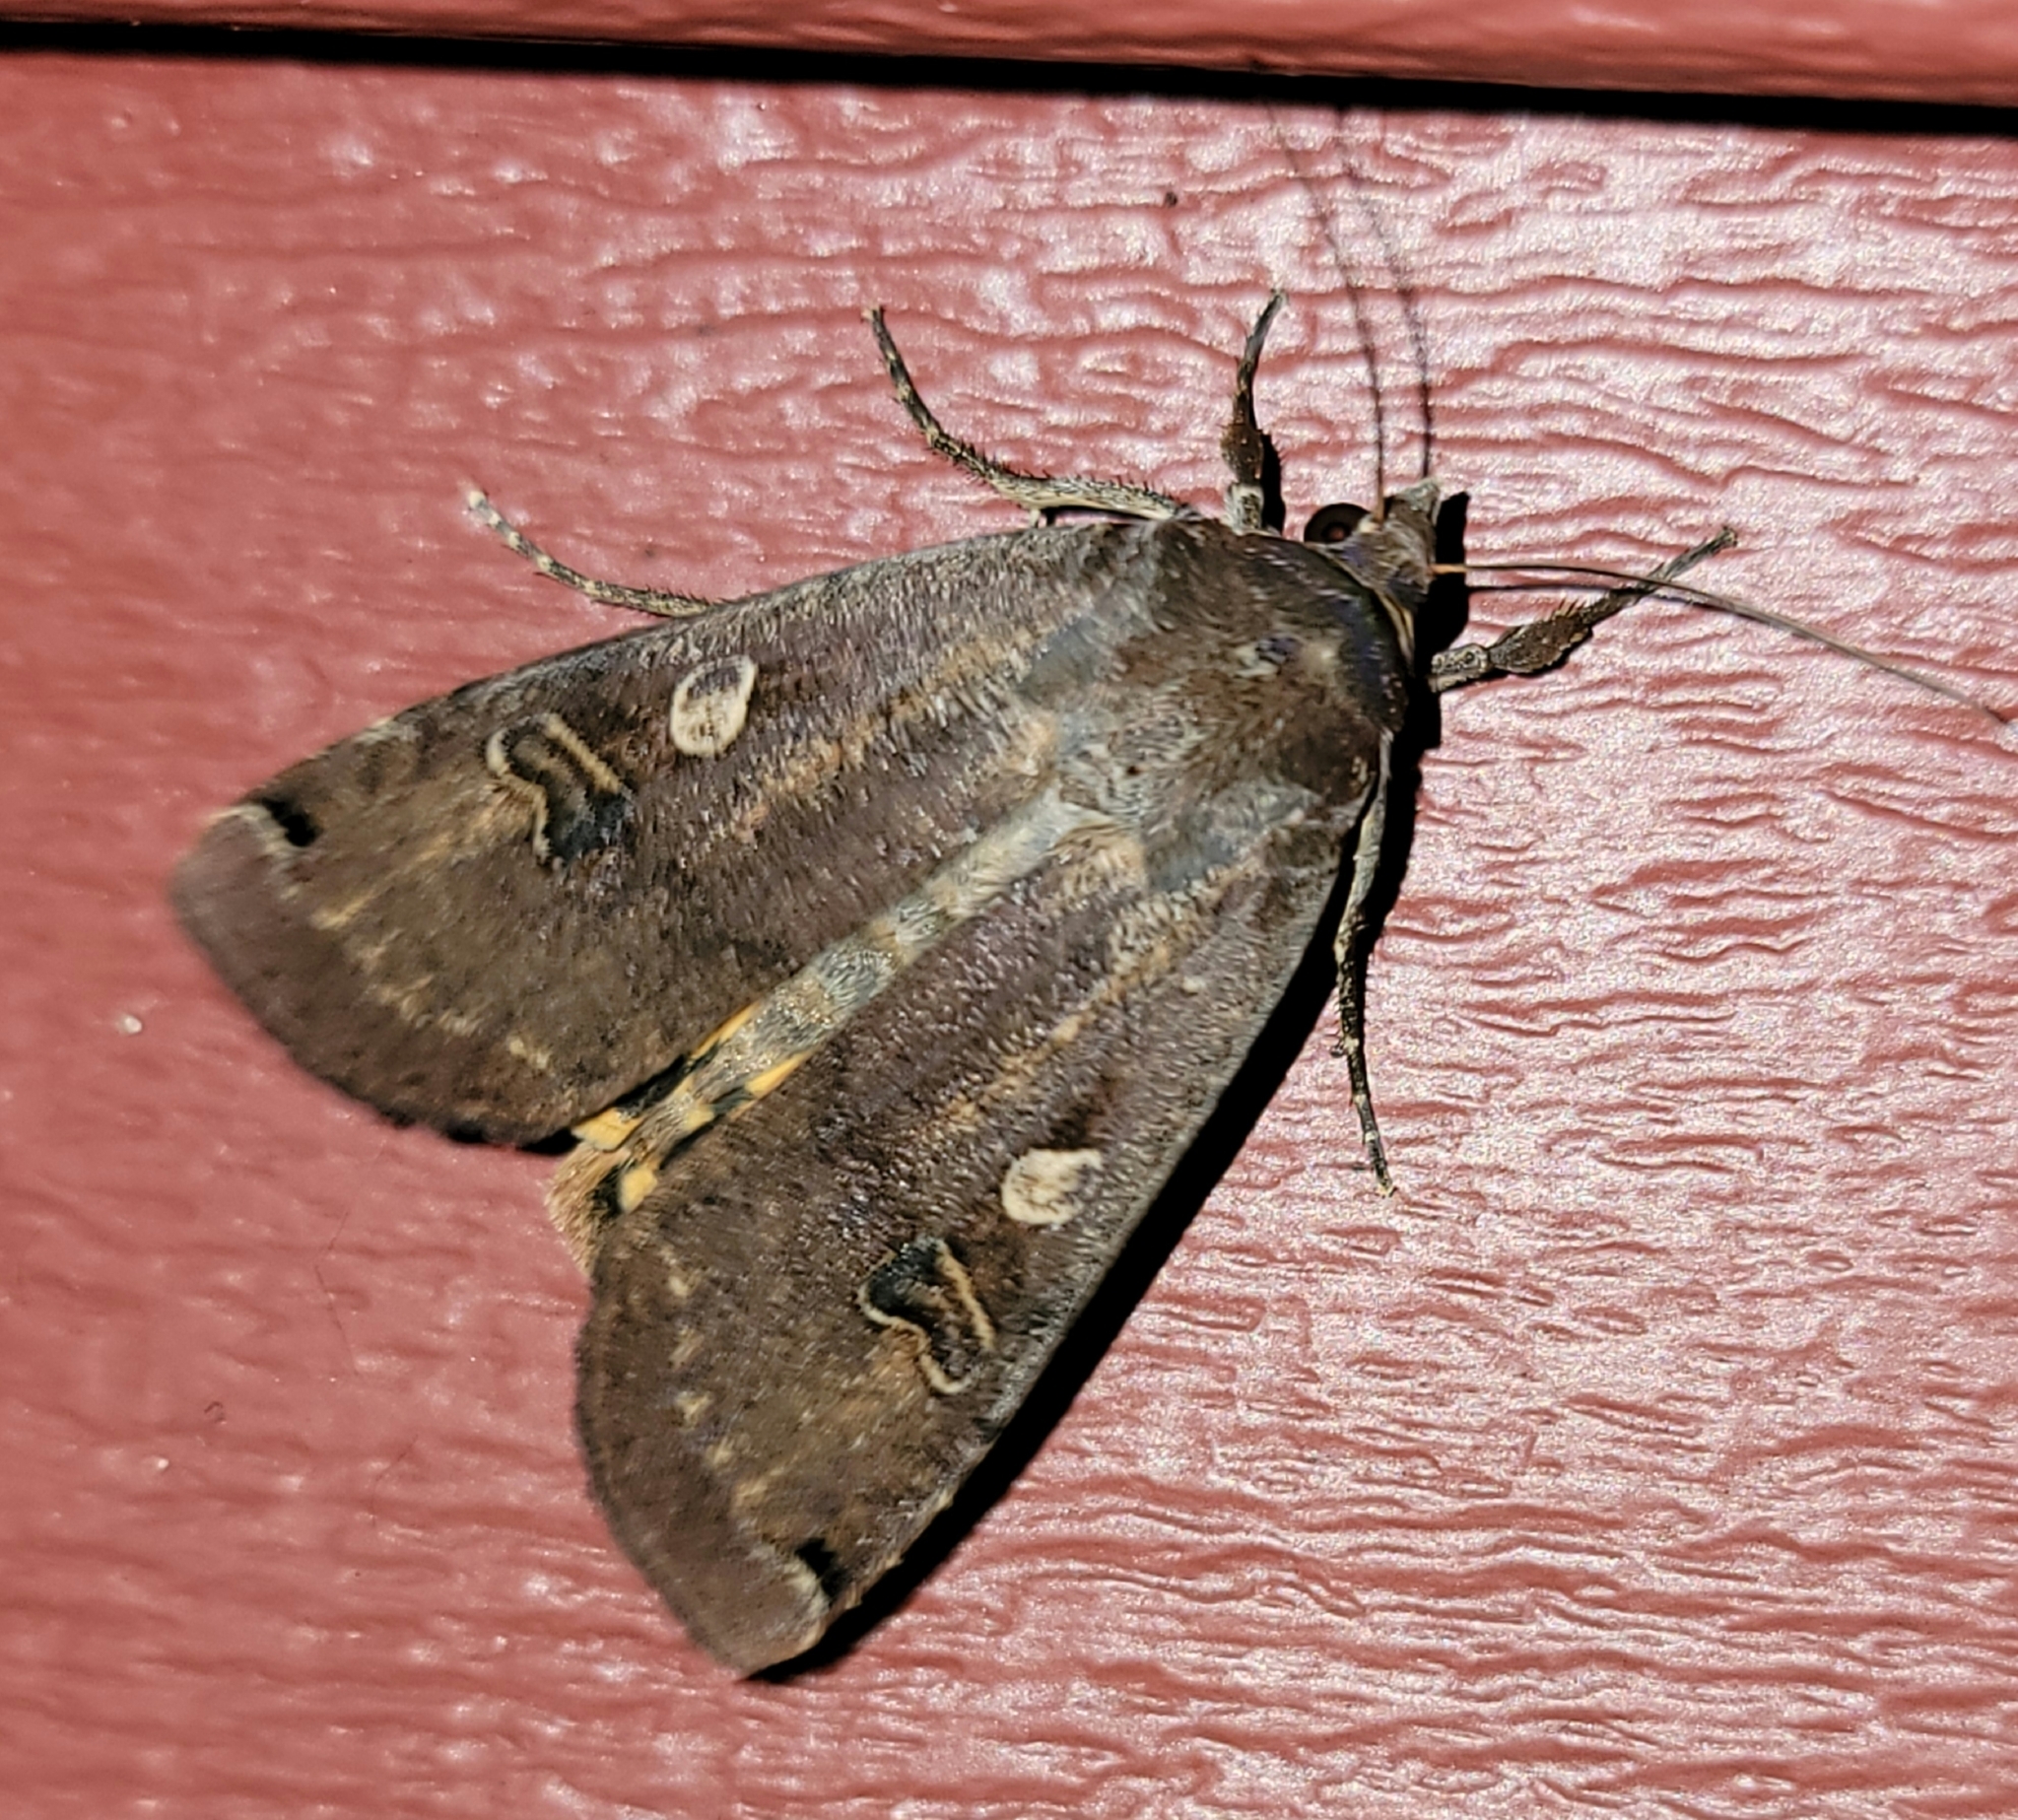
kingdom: Animalia
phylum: Arthropoda
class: Insecta
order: Lepidoptera
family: Noctuidae
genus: Noctua
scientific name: Noctua pronuba
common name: Large yellow underwing
